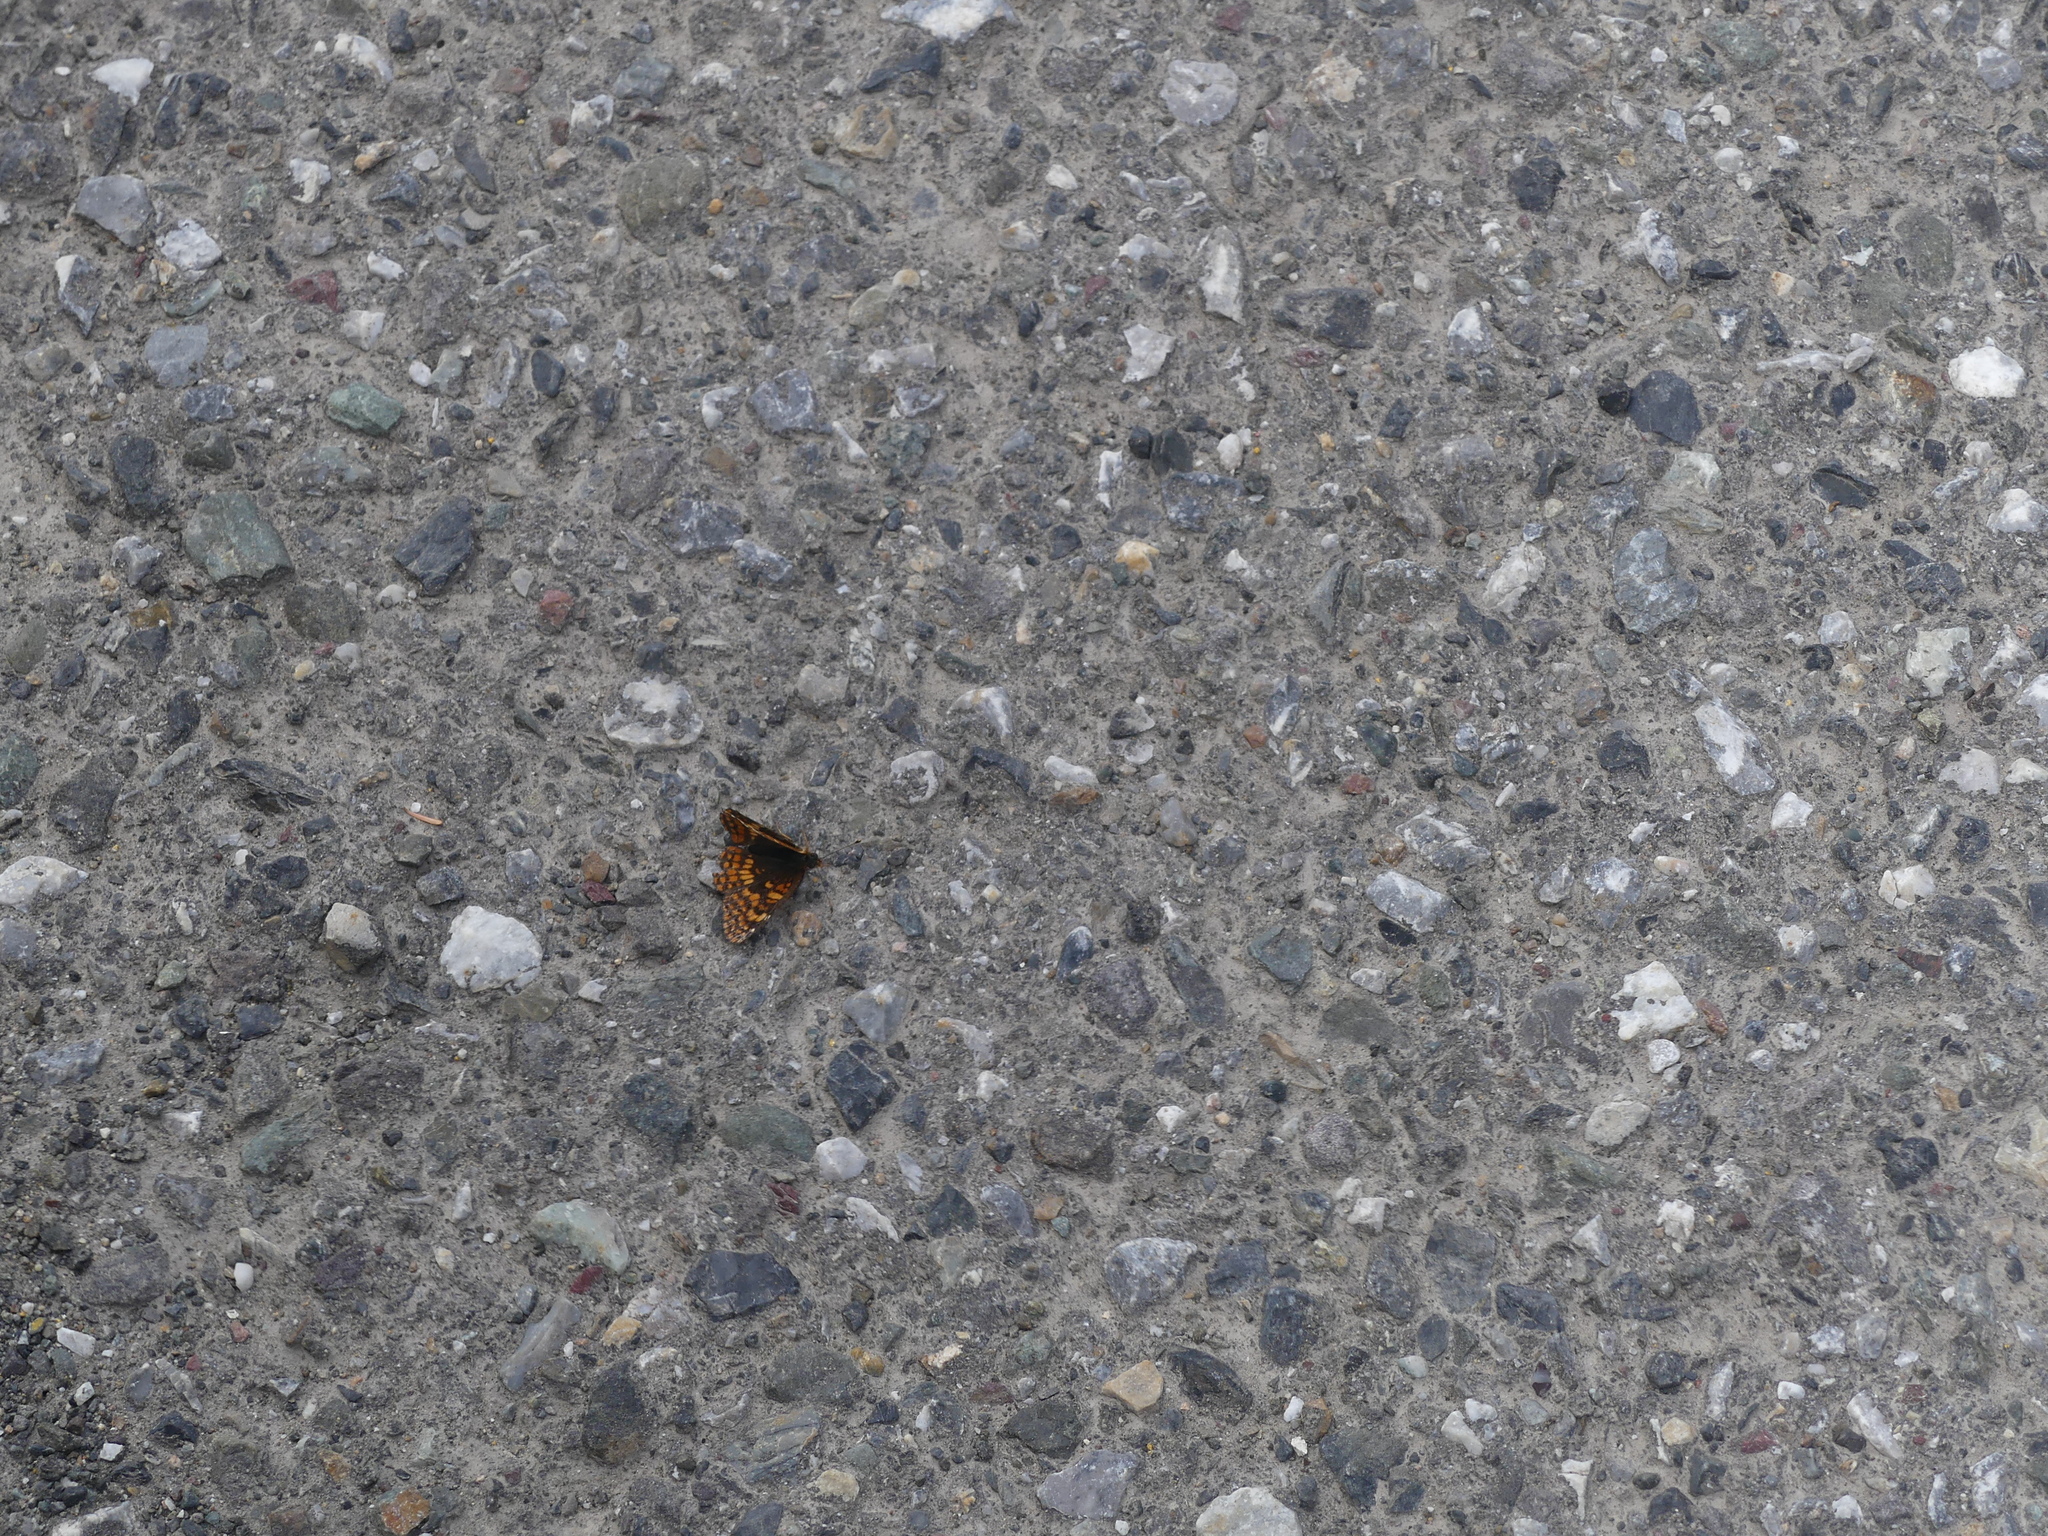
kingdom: Animalia
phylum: Arthropoda
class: Insecta
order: Lepidoptera
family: Nymphalidae
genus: Chlosyne
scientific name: Chlosyne palla
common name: Northern checkerspot
